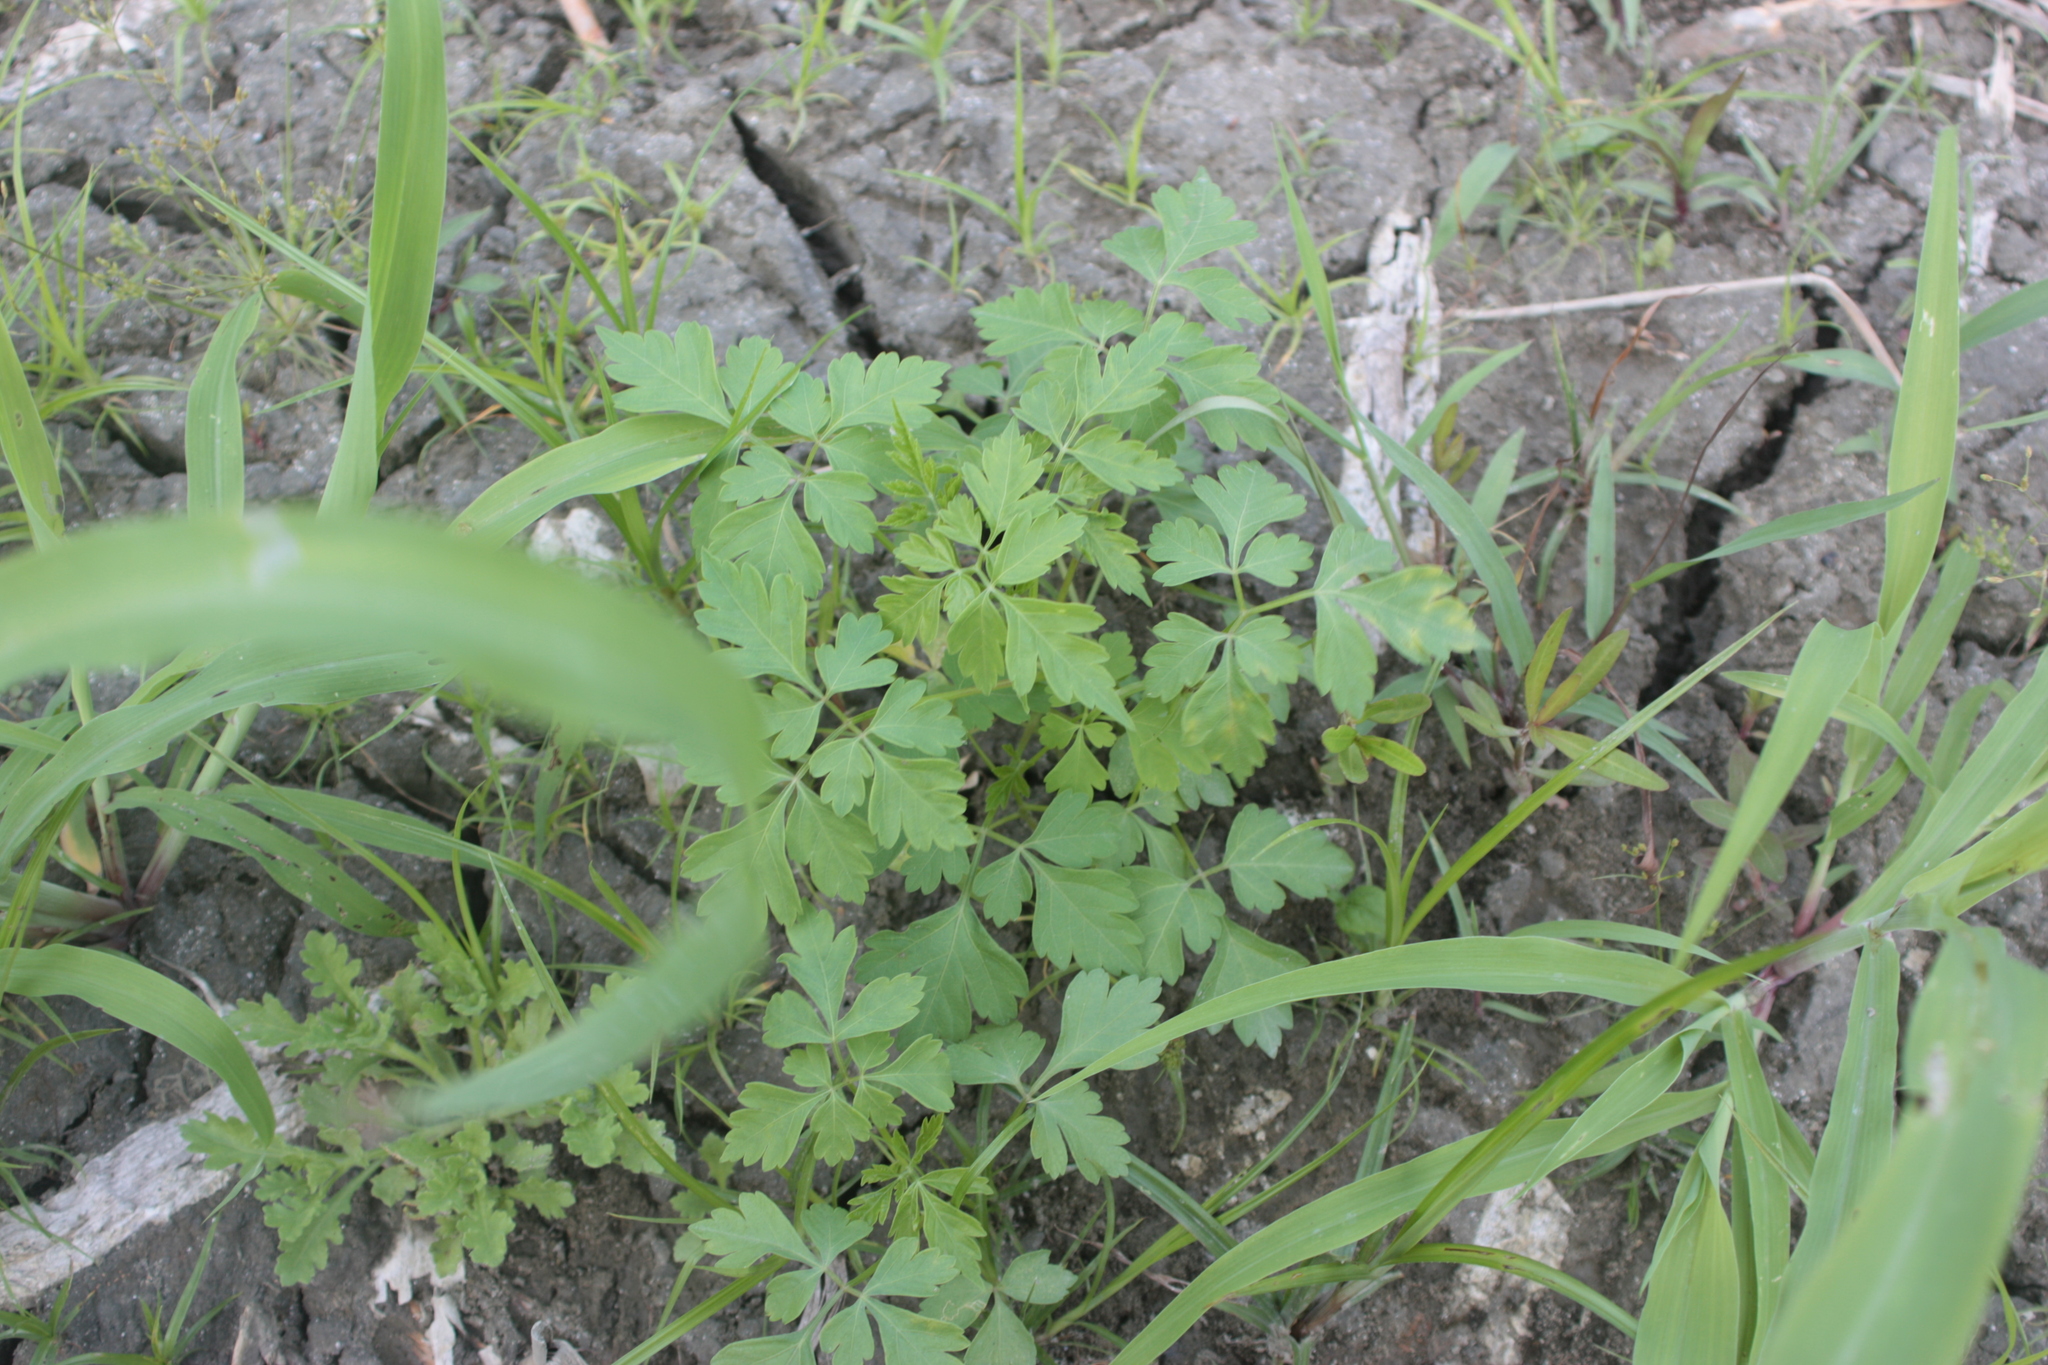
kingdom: Plantae
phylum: Tracheophyta
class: Magnoliopsida
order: Sapindales
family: Sapindaceae
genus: Cardiospermum
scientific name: Cardiospermum halicacabum
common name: Balloon vine
